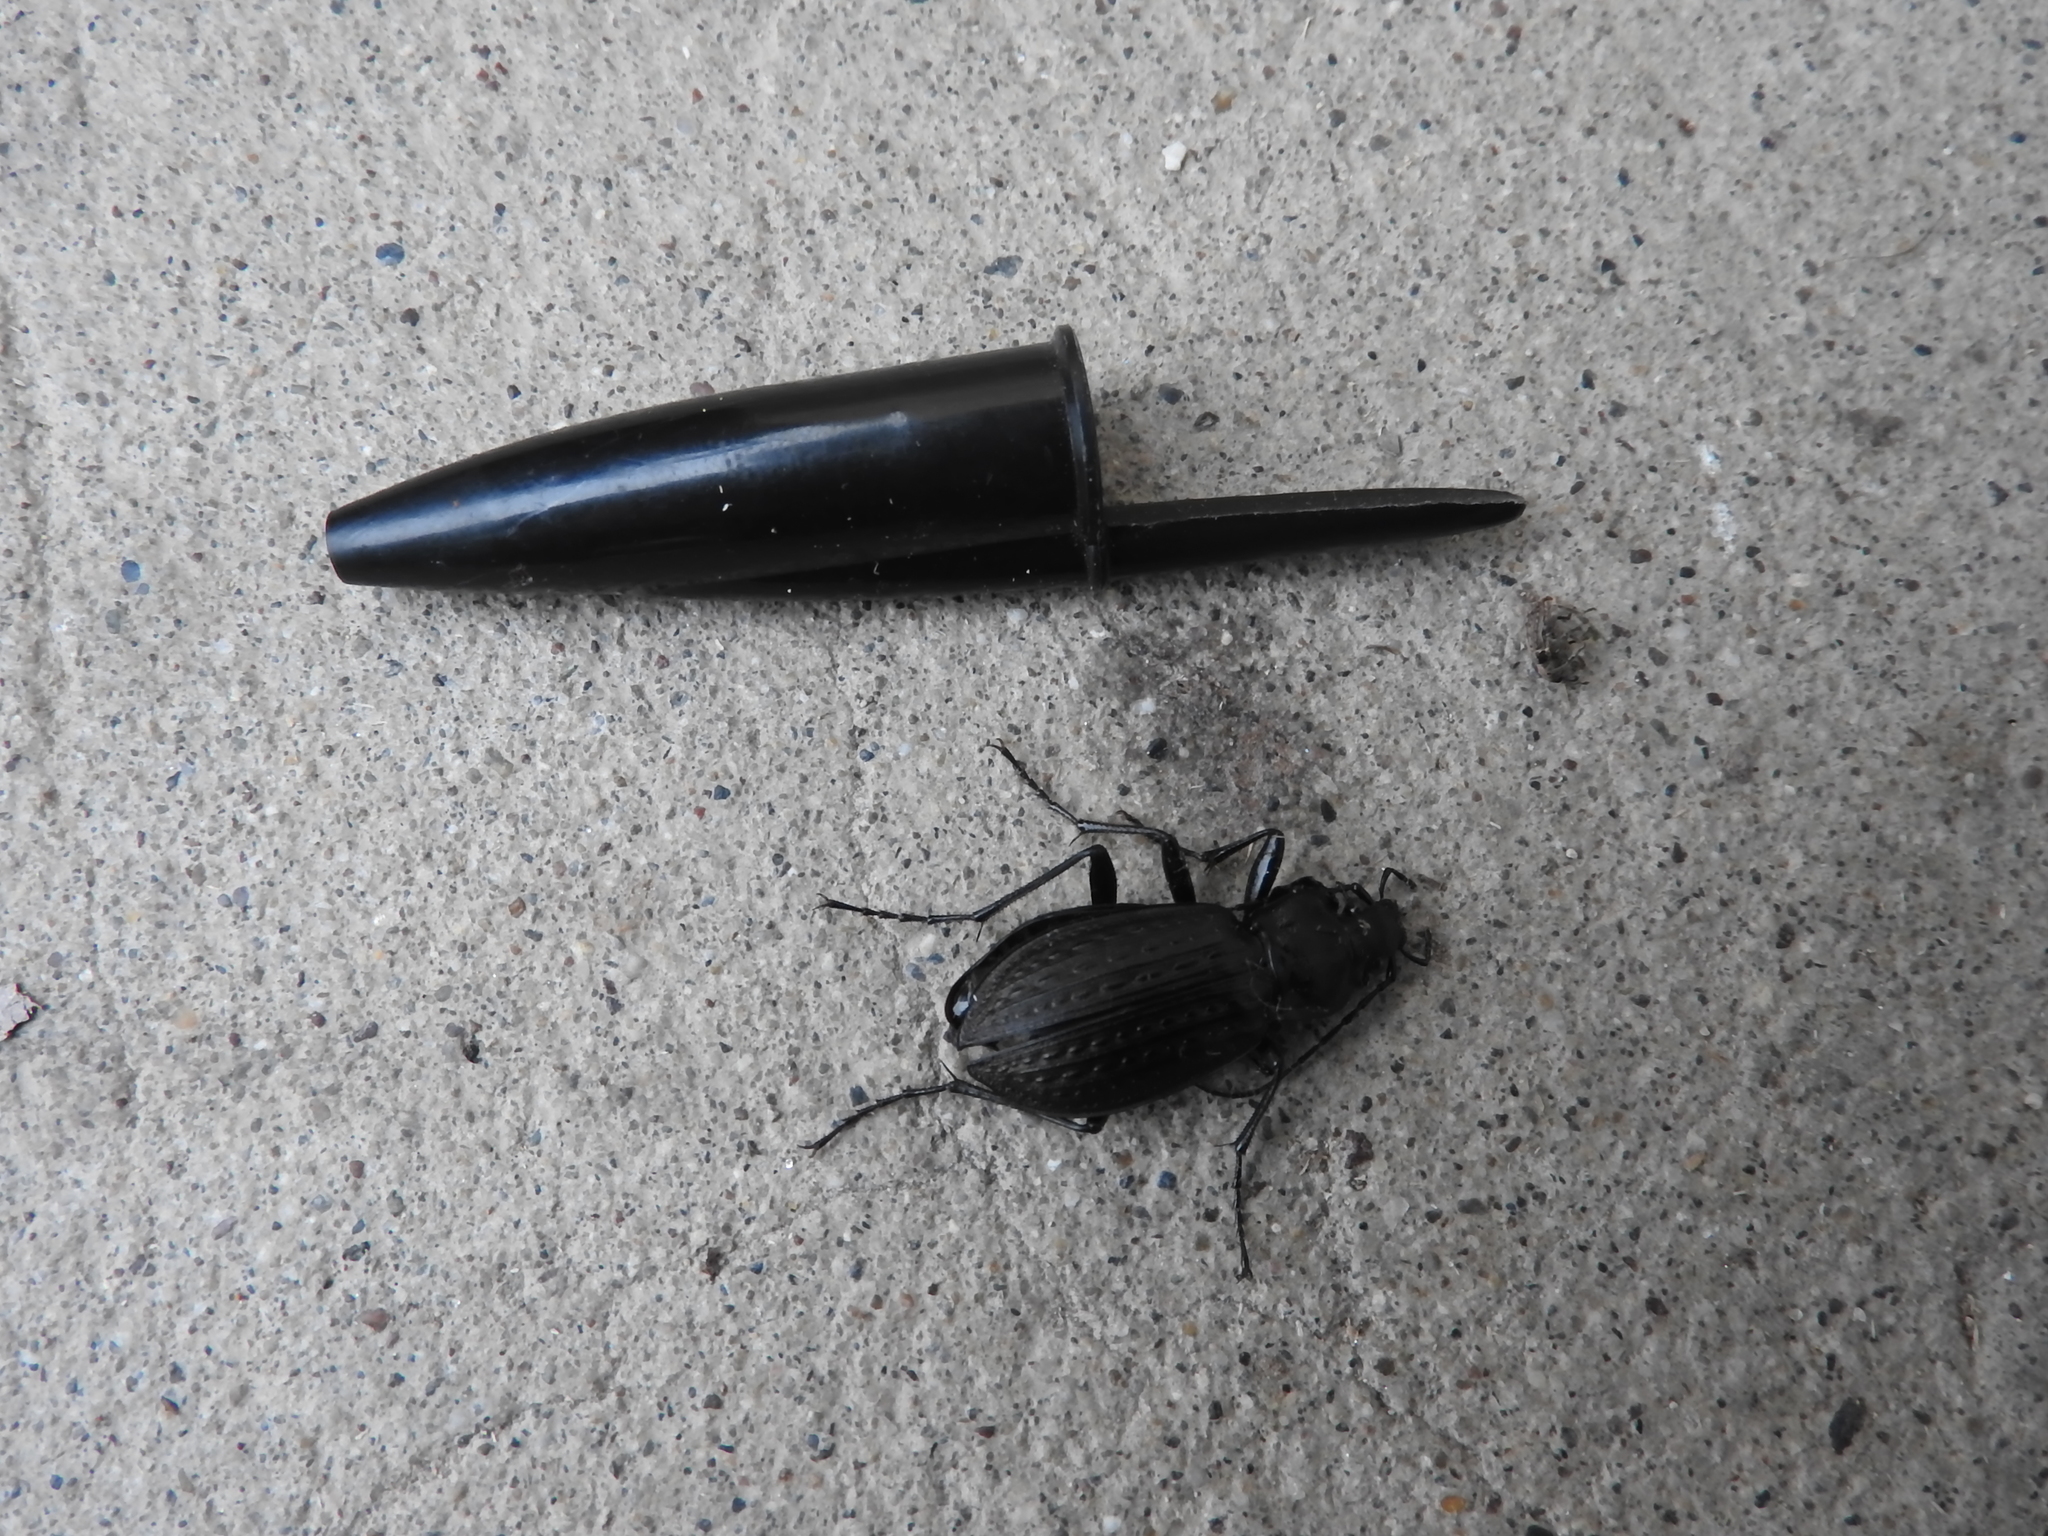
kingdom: Animalia
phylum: Arthropoda
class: Insecta
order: Coleoptera
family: Carabidae
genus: Carabus
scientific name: Carabus granulatus
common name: Granulate ground beetle
